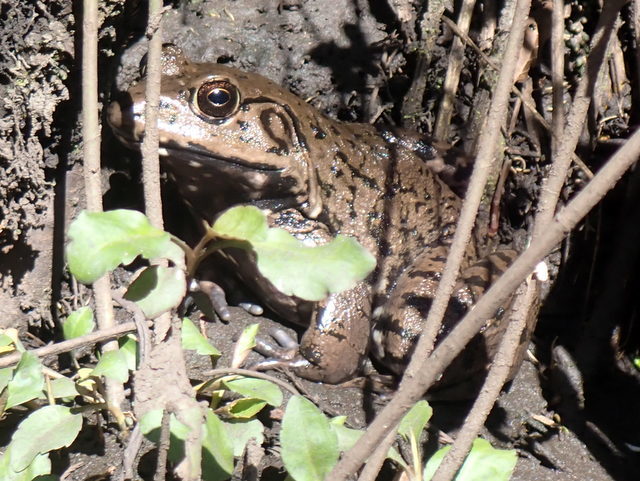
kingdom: Animalia
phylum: Chordata
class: Amphibia
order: Anura
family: Ranidae
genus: Lithobates
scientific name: Lithobates heckscheri
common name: River frog
